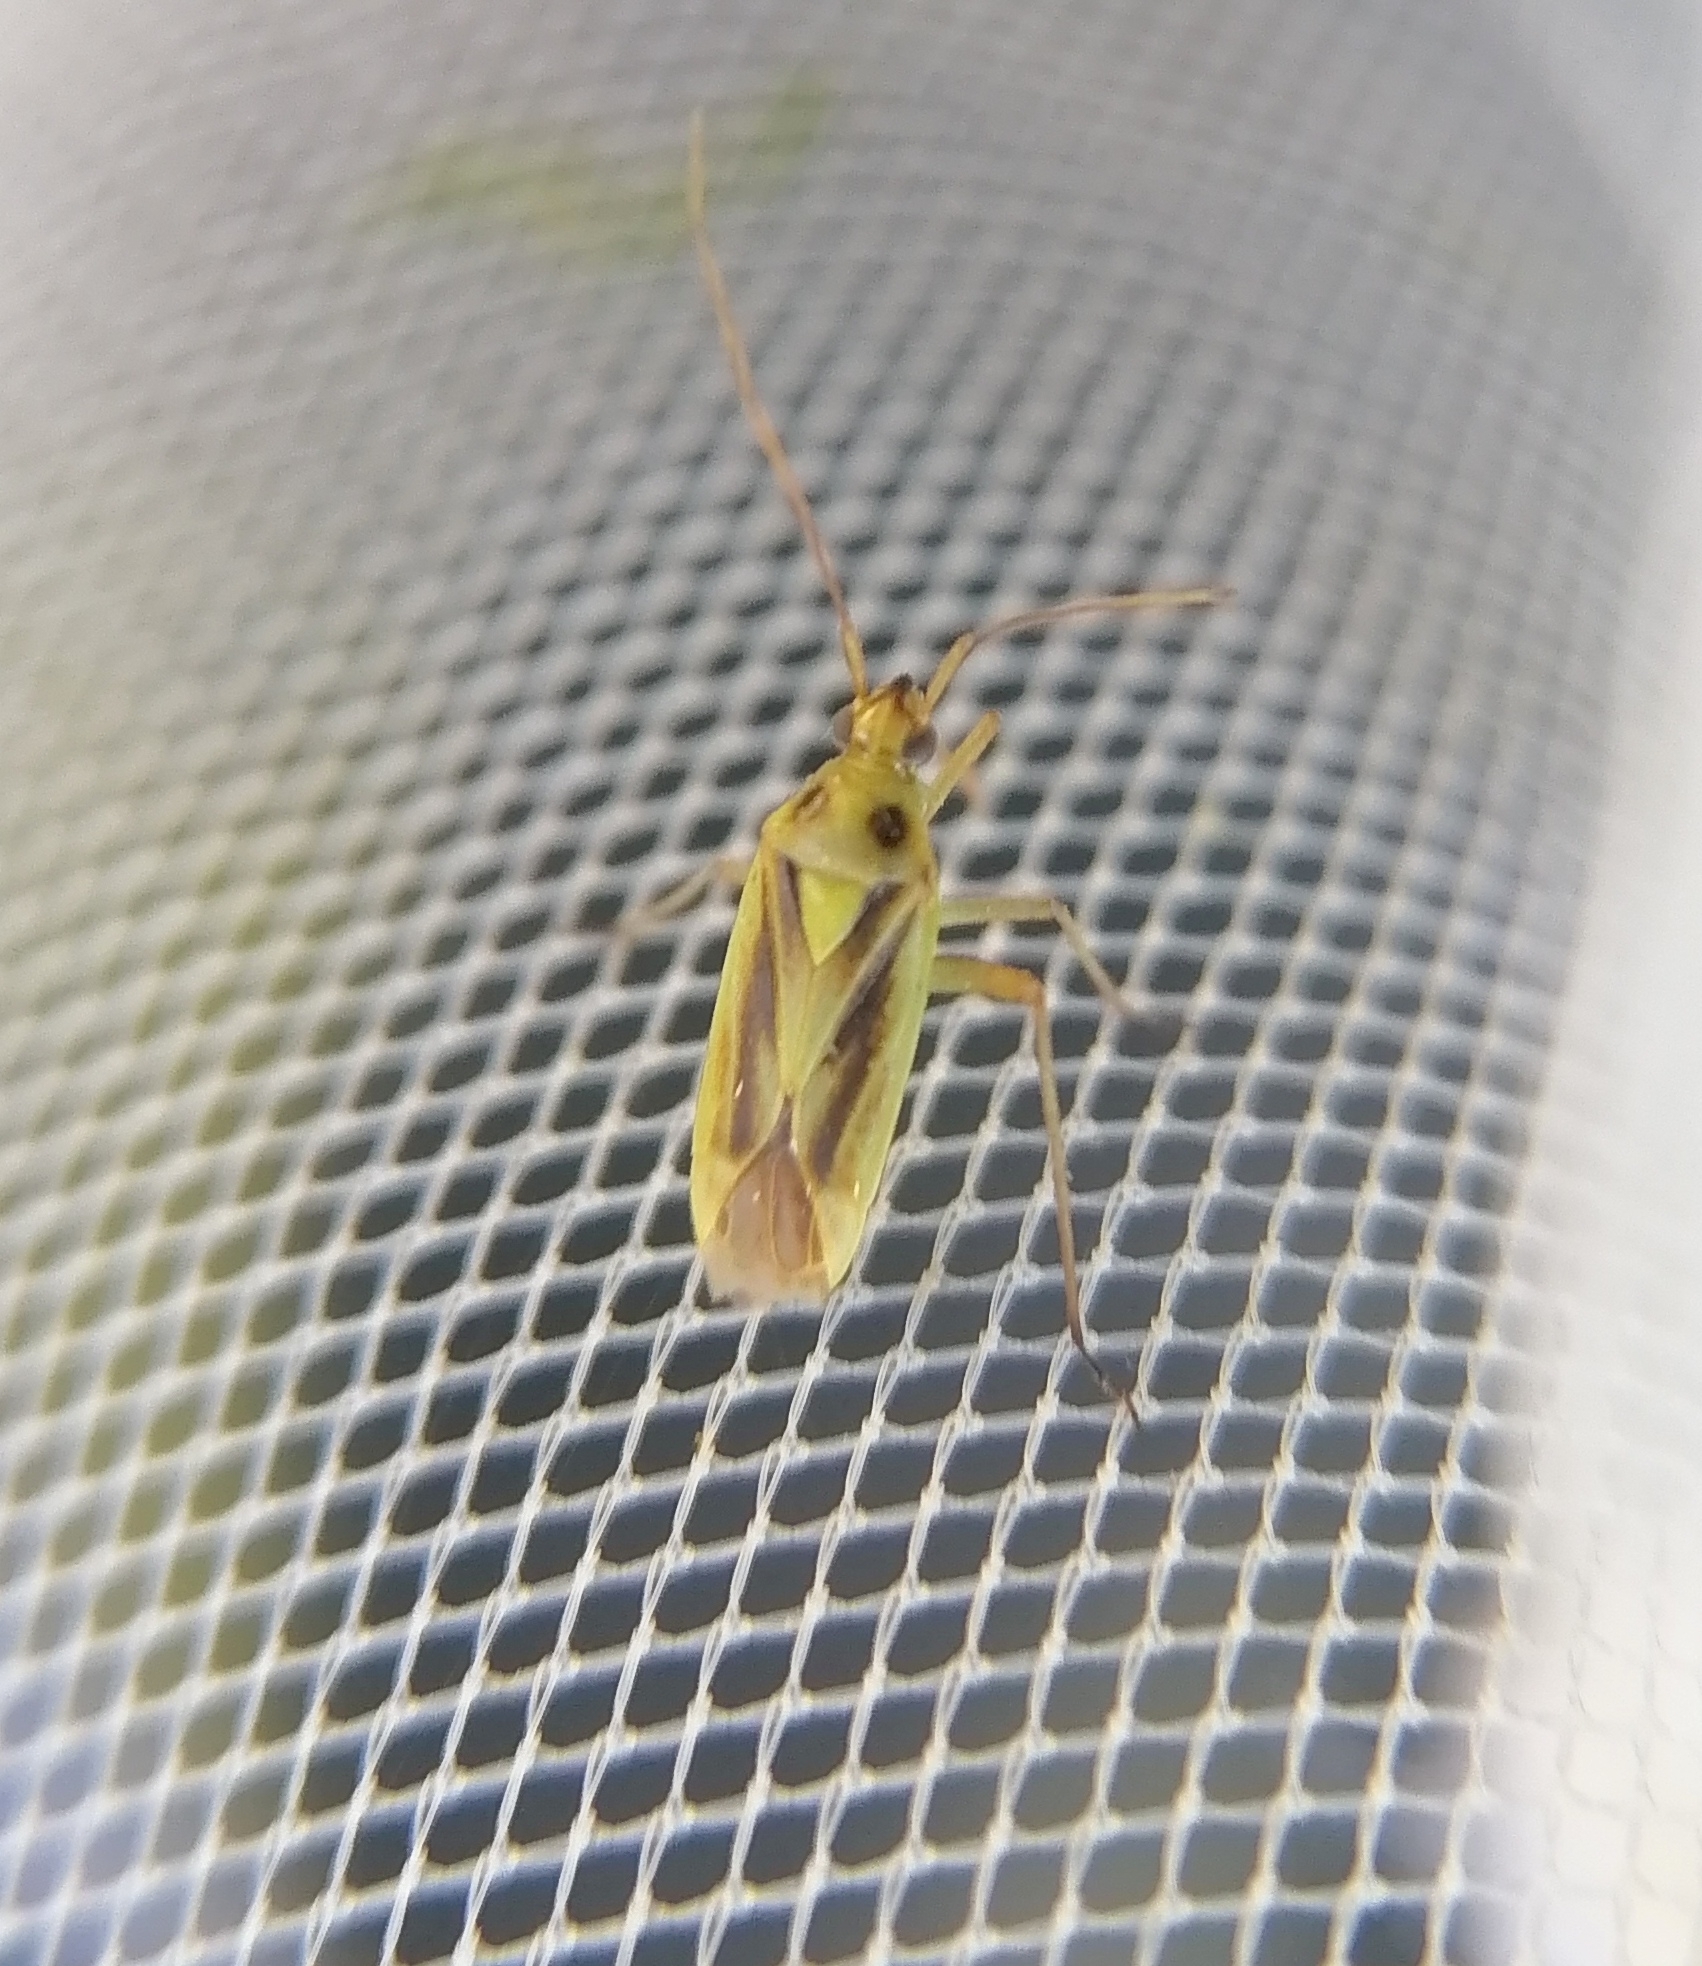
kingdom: Animalia
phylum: Arthropoda
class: Insecta
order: Hemiptera
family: Miridae
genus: Stenotus
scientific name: Stenotus binotatus
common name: Plant bug
